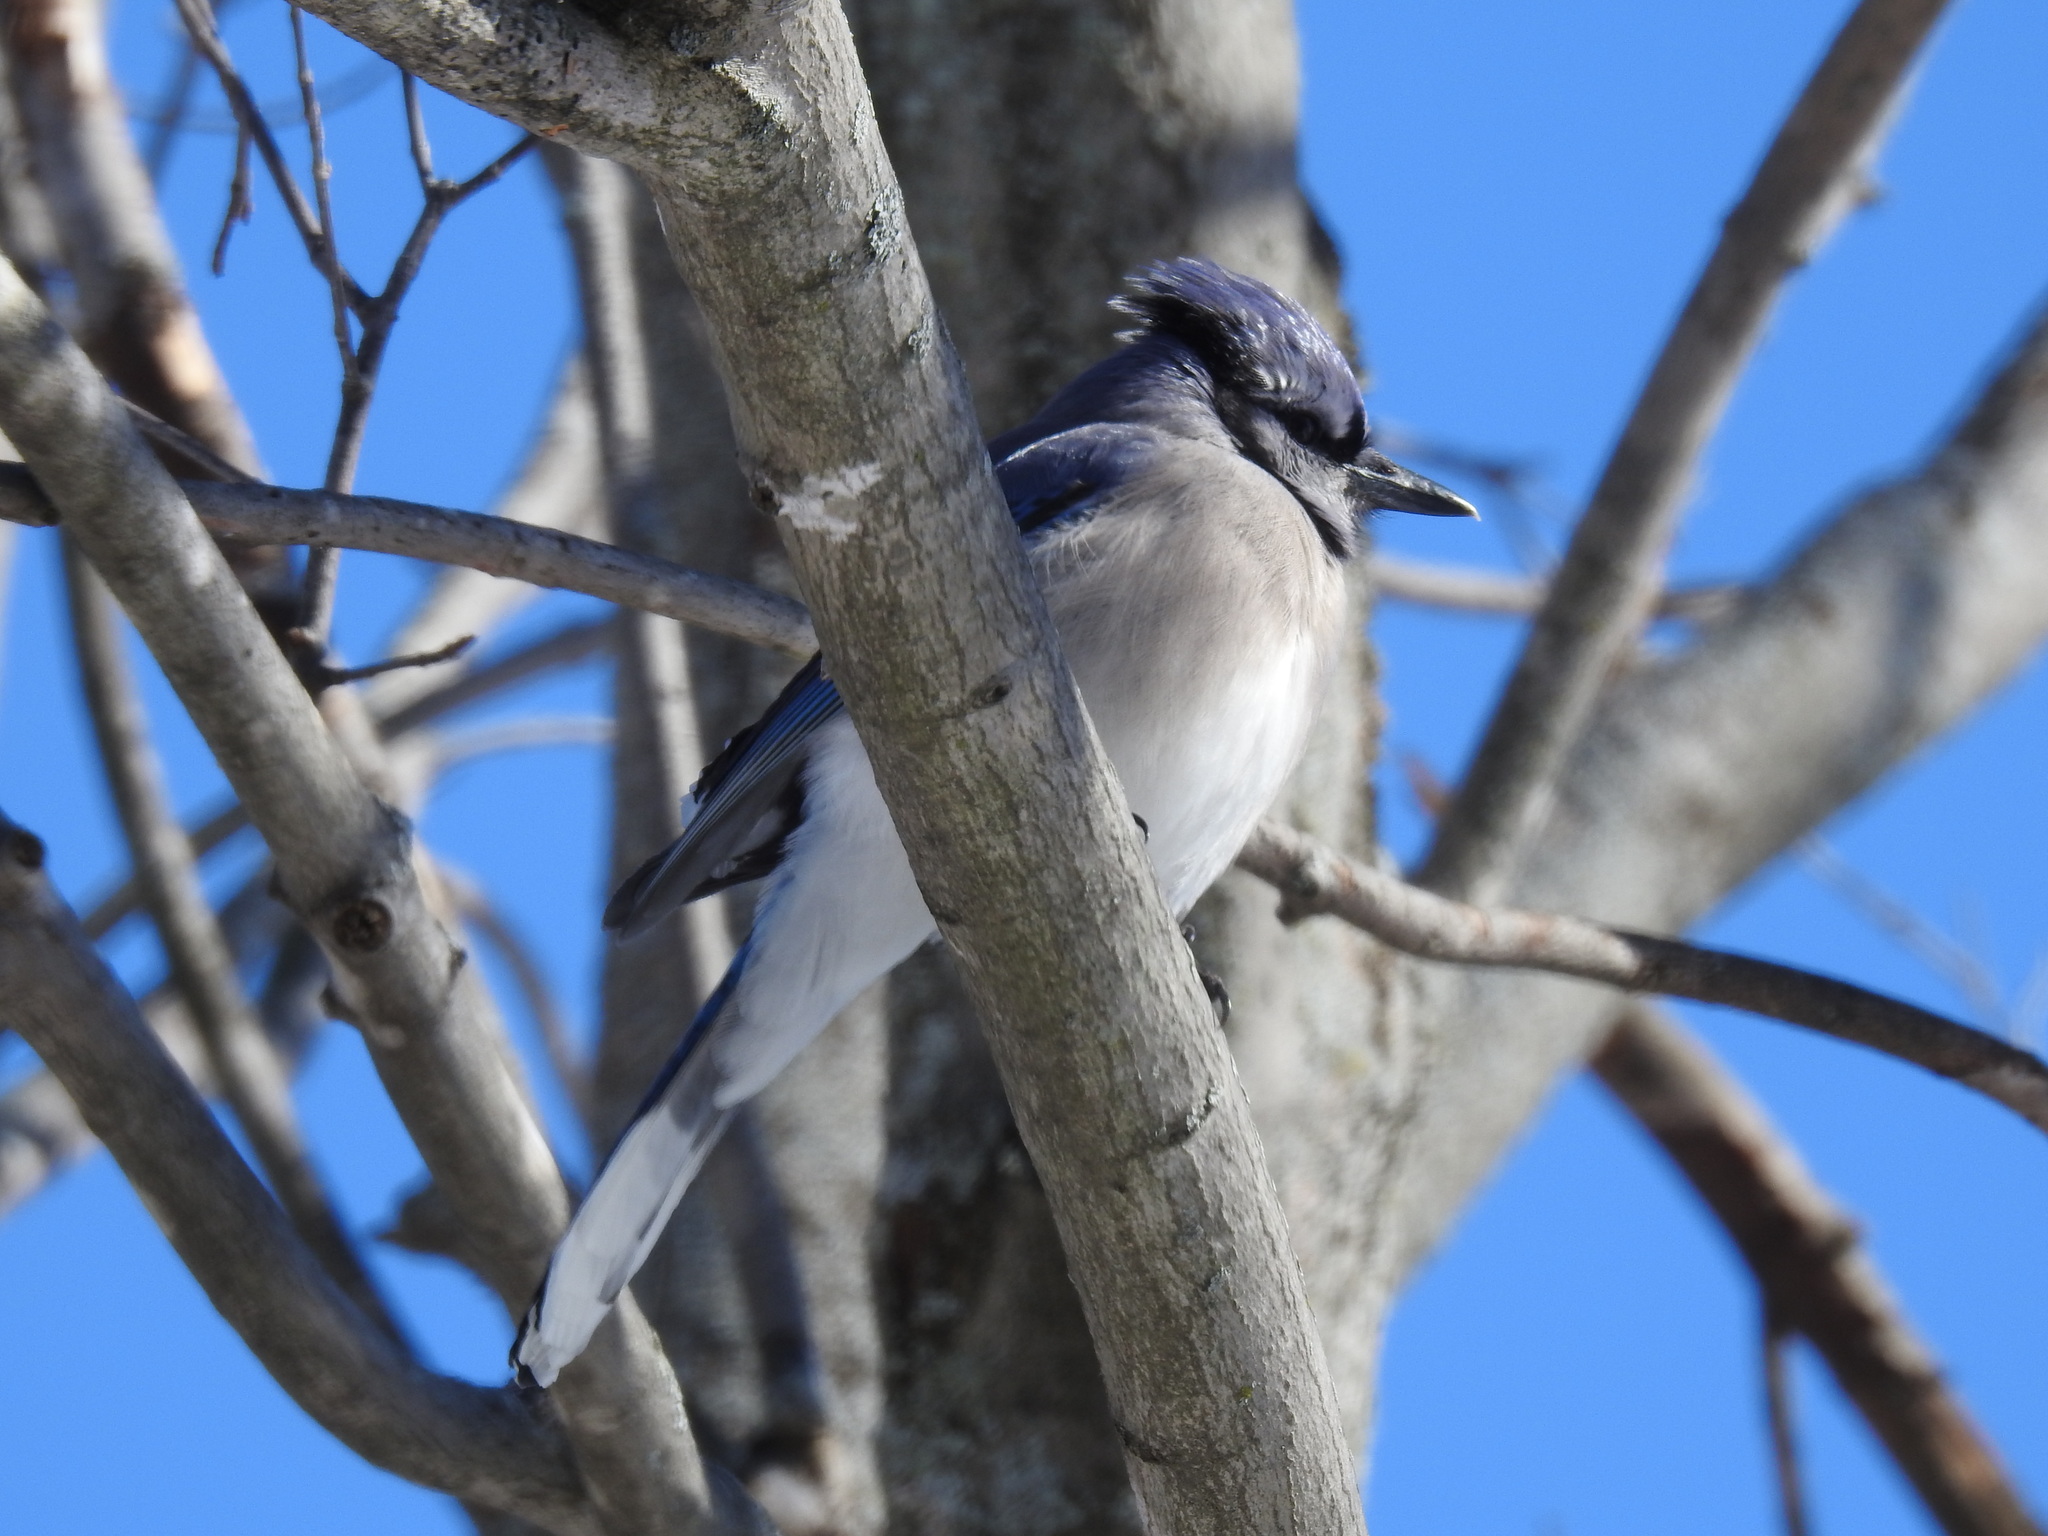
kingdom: Animalia
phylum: Chordata
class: Aves
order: Passeriformes
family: Corvidae
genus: Cyanocitta
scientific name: Cyanocitta cristata
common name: Blue jay
